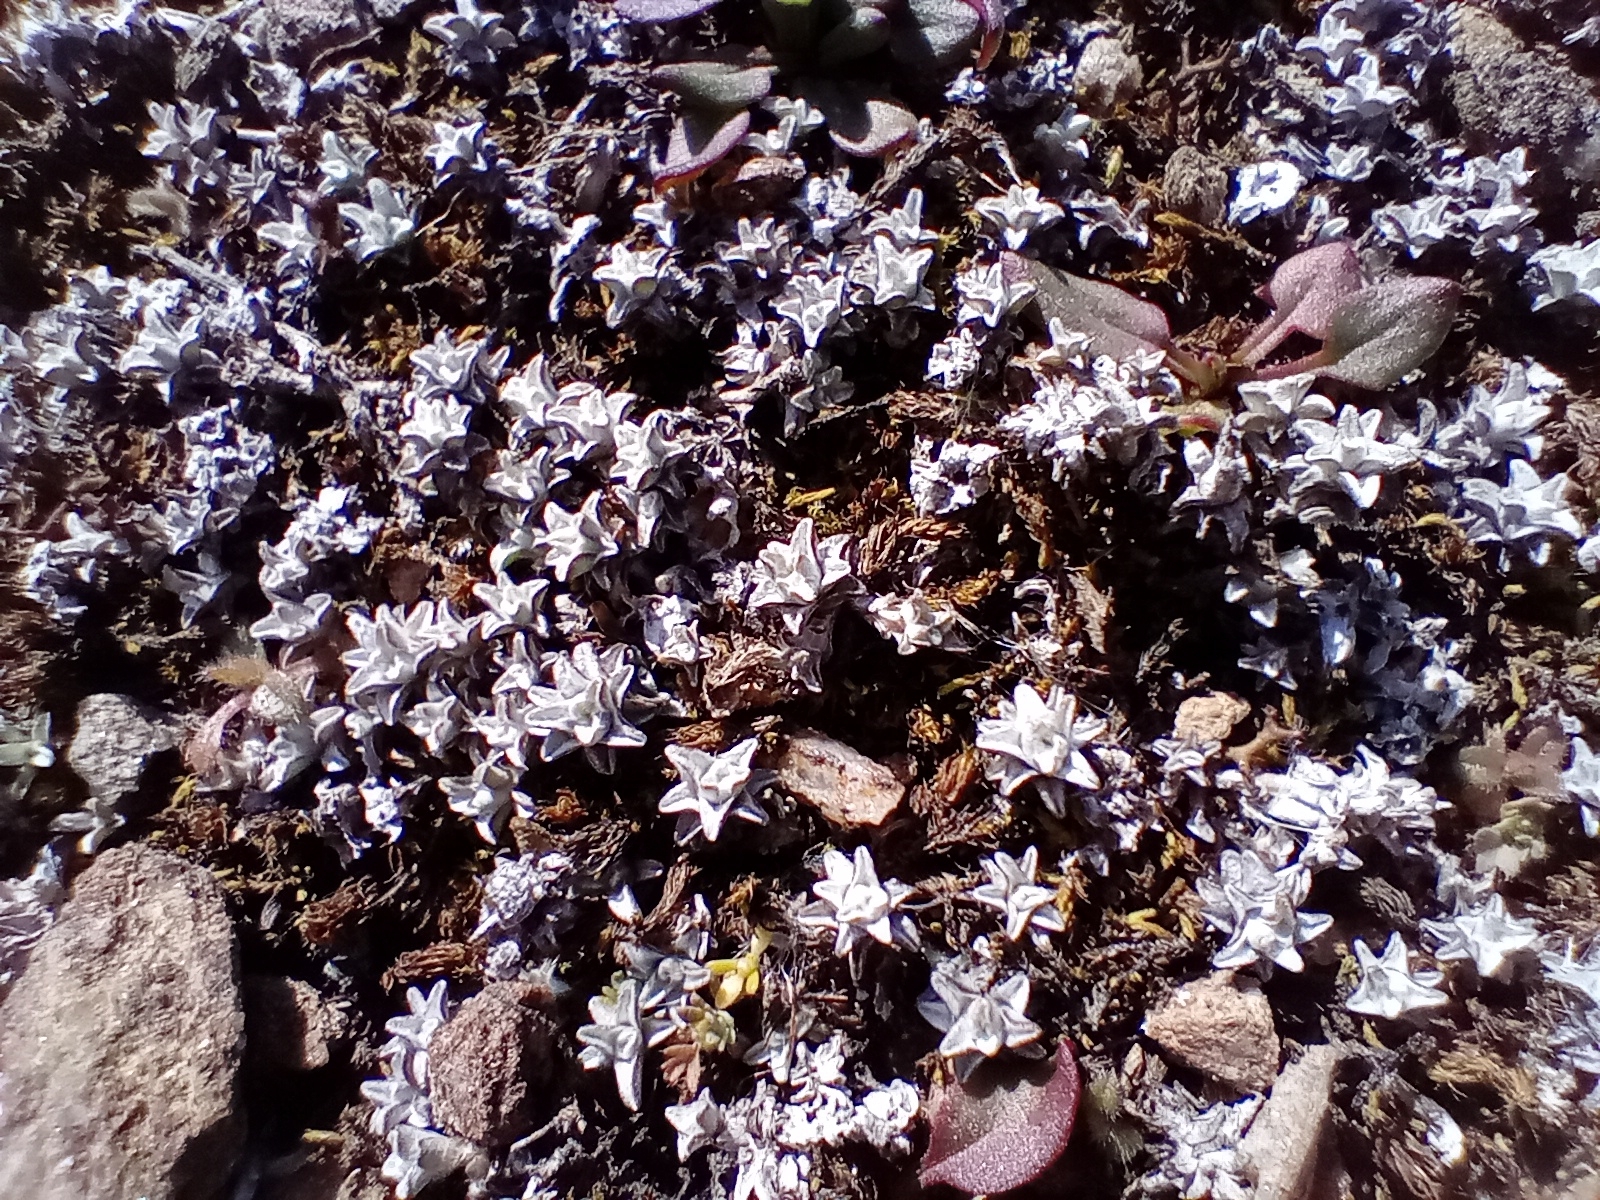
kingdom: Plantae
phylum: Tracheophyta
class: Magnoliopsida
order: Asterales
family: Asteraceae
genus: Raoulia
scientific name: Raoulia beauverdii
